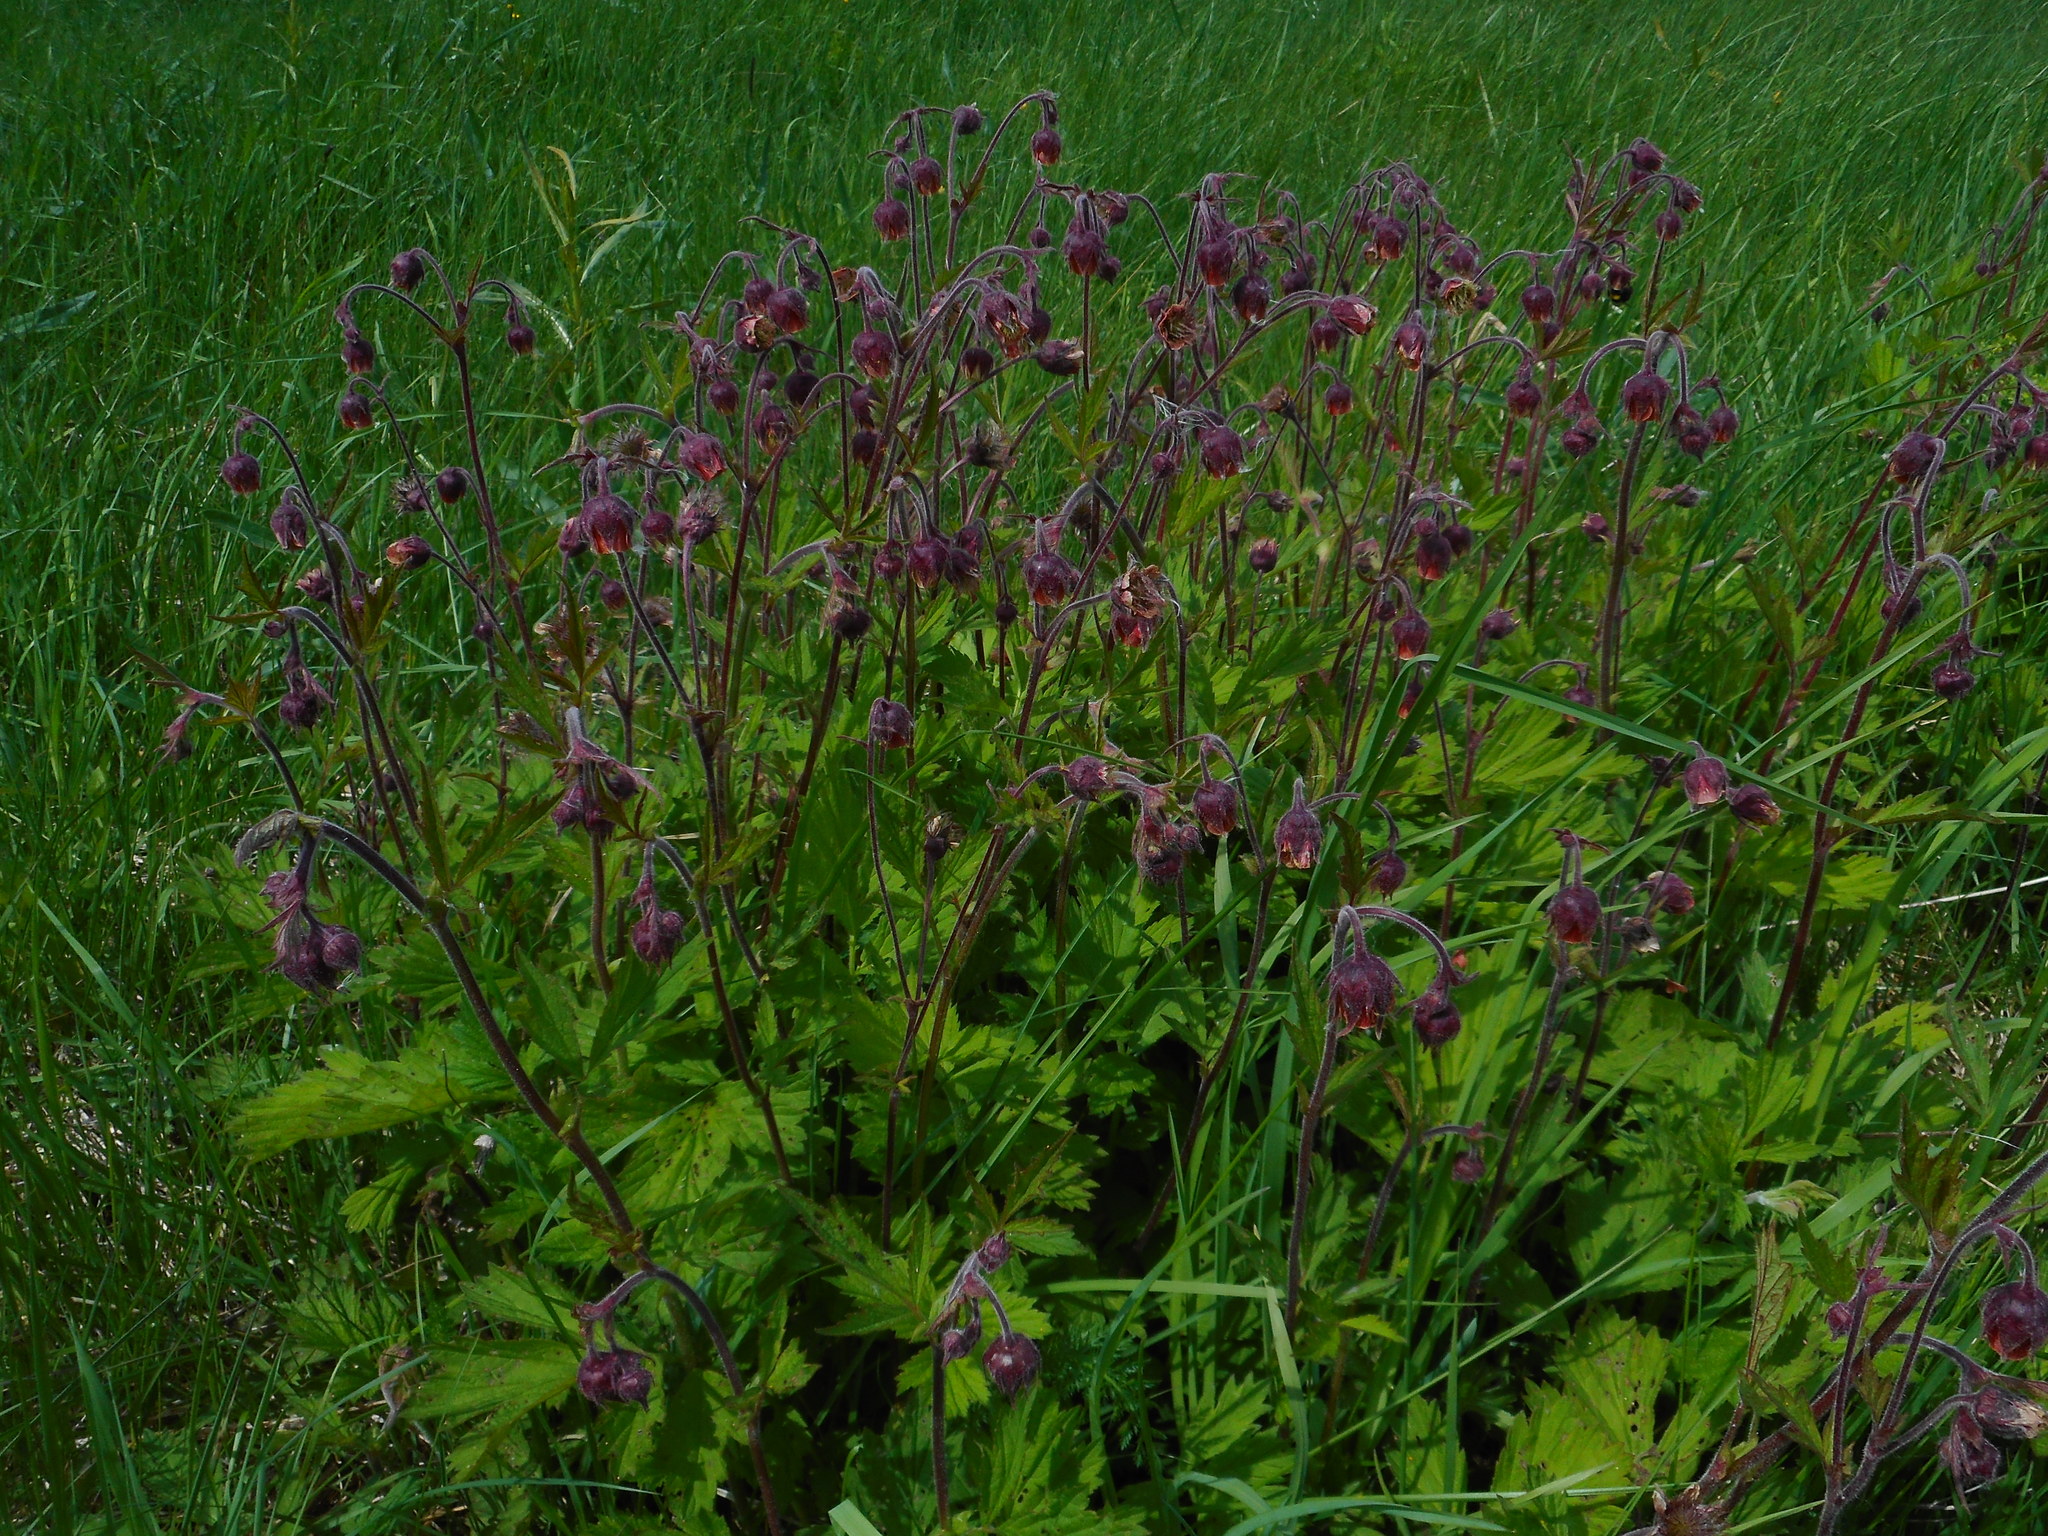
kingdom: Plantae
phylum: Tracheophyta
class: Magnoliopsida
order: Rosales
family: Rosaceae
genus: Geum
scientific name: Geum rivale
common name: Water avens
